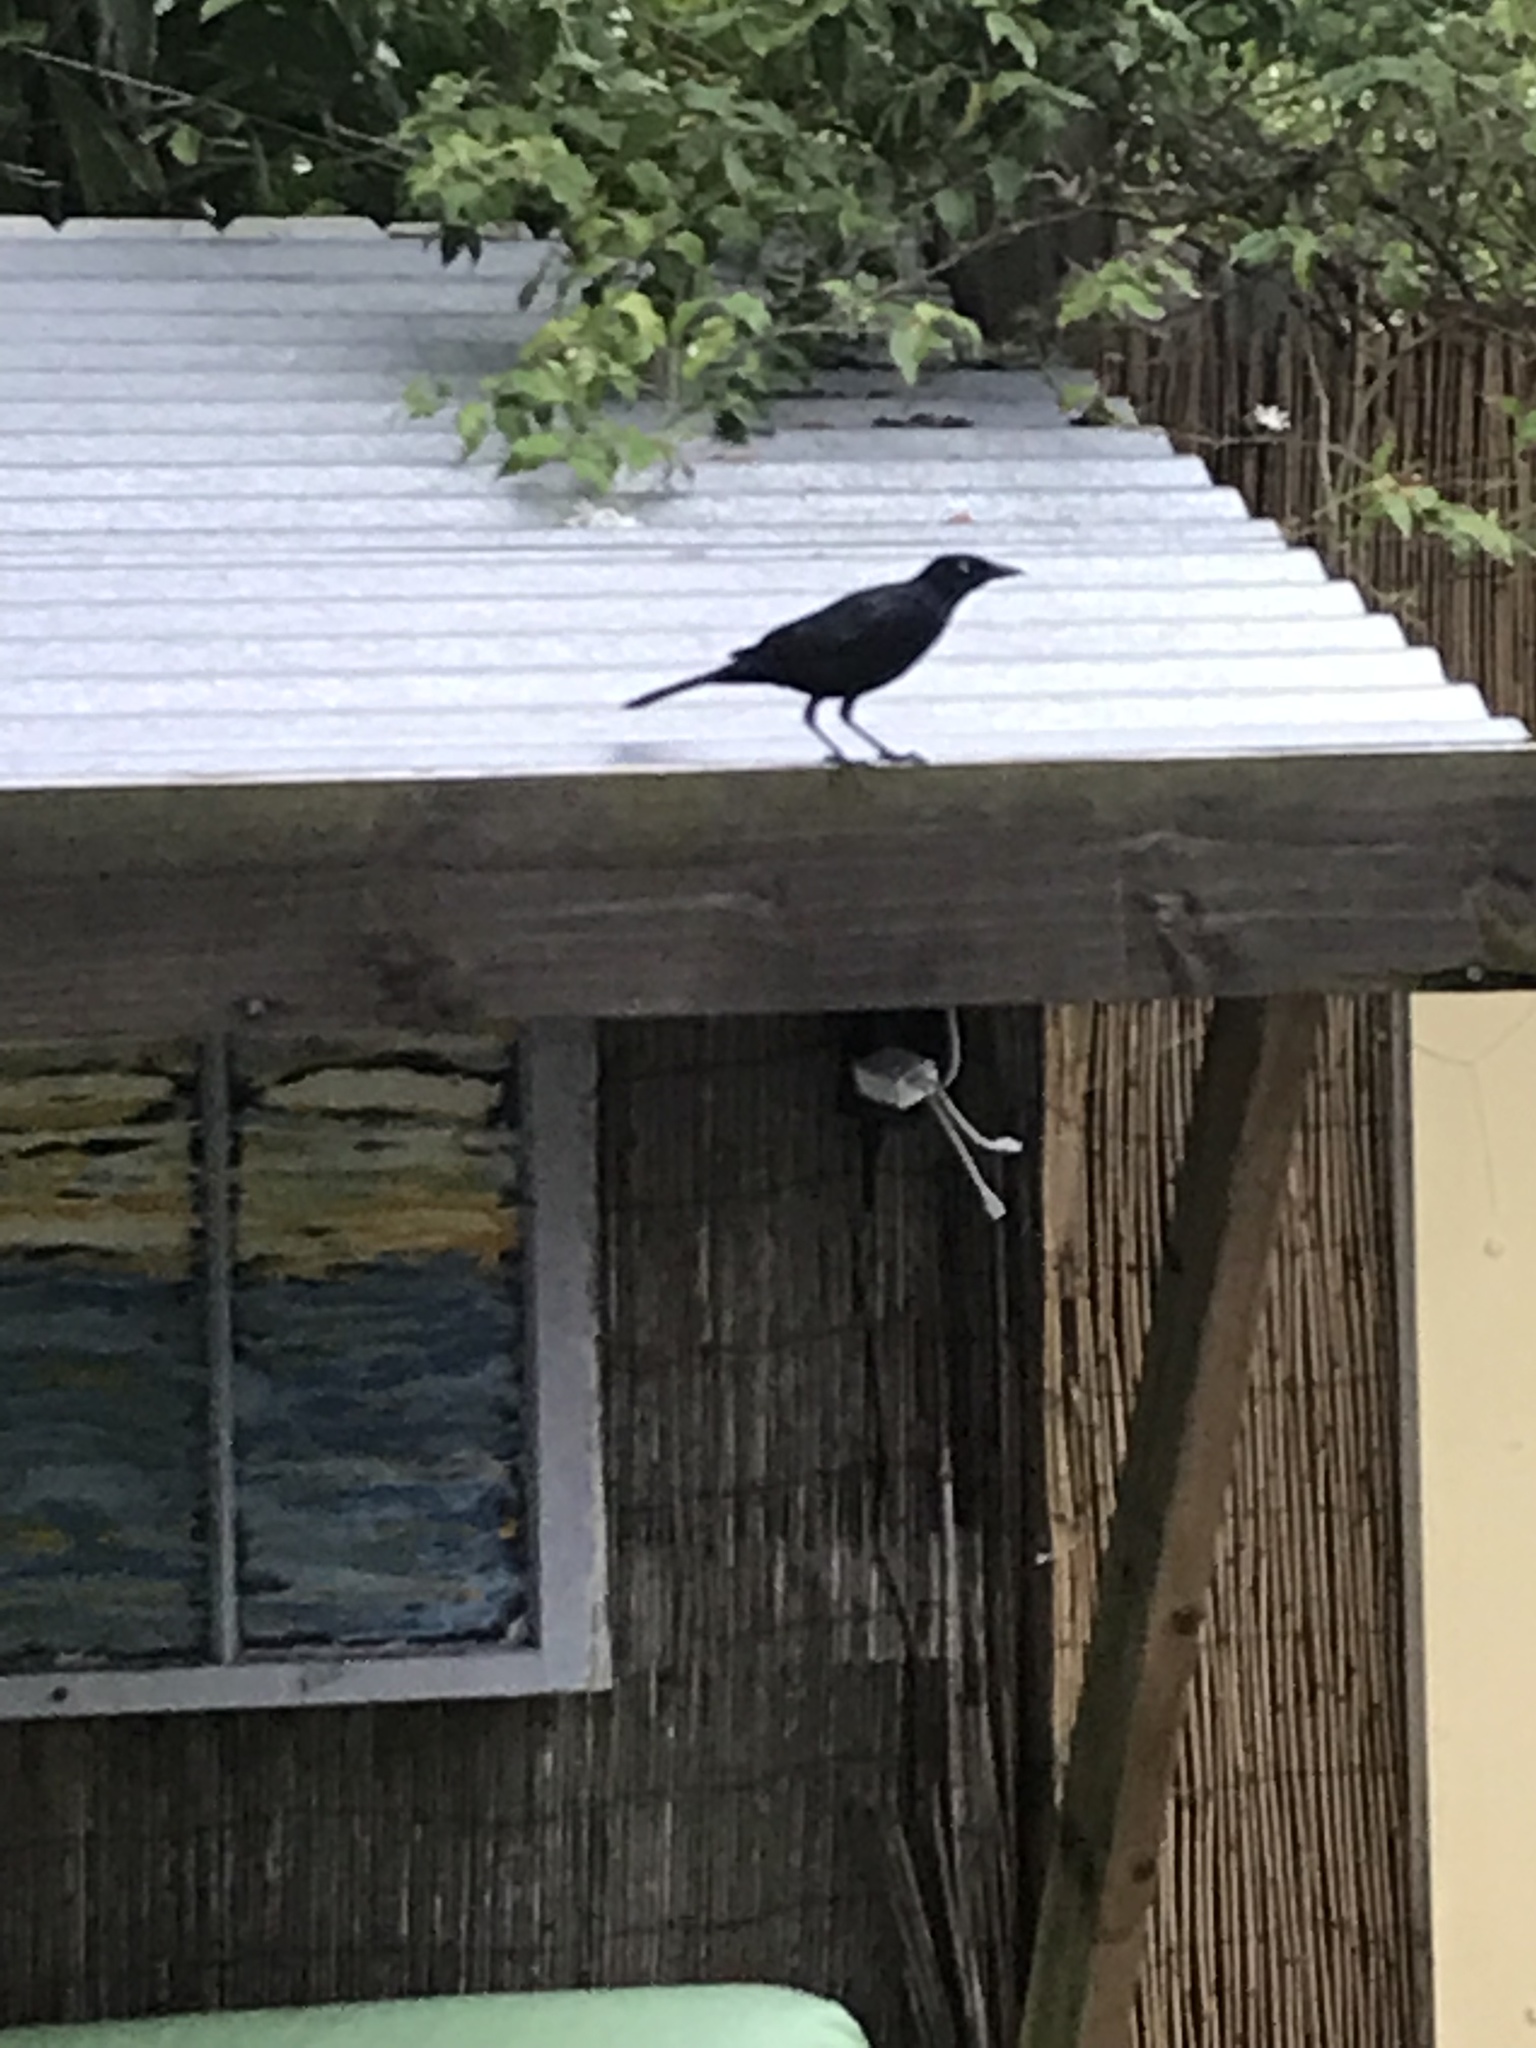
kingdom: Animalia
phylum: Chordata
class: Aves
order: Passeriformes
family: Icteridae
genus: Quiscalus
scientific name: Quiscalus quiscula
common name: Common grackle
